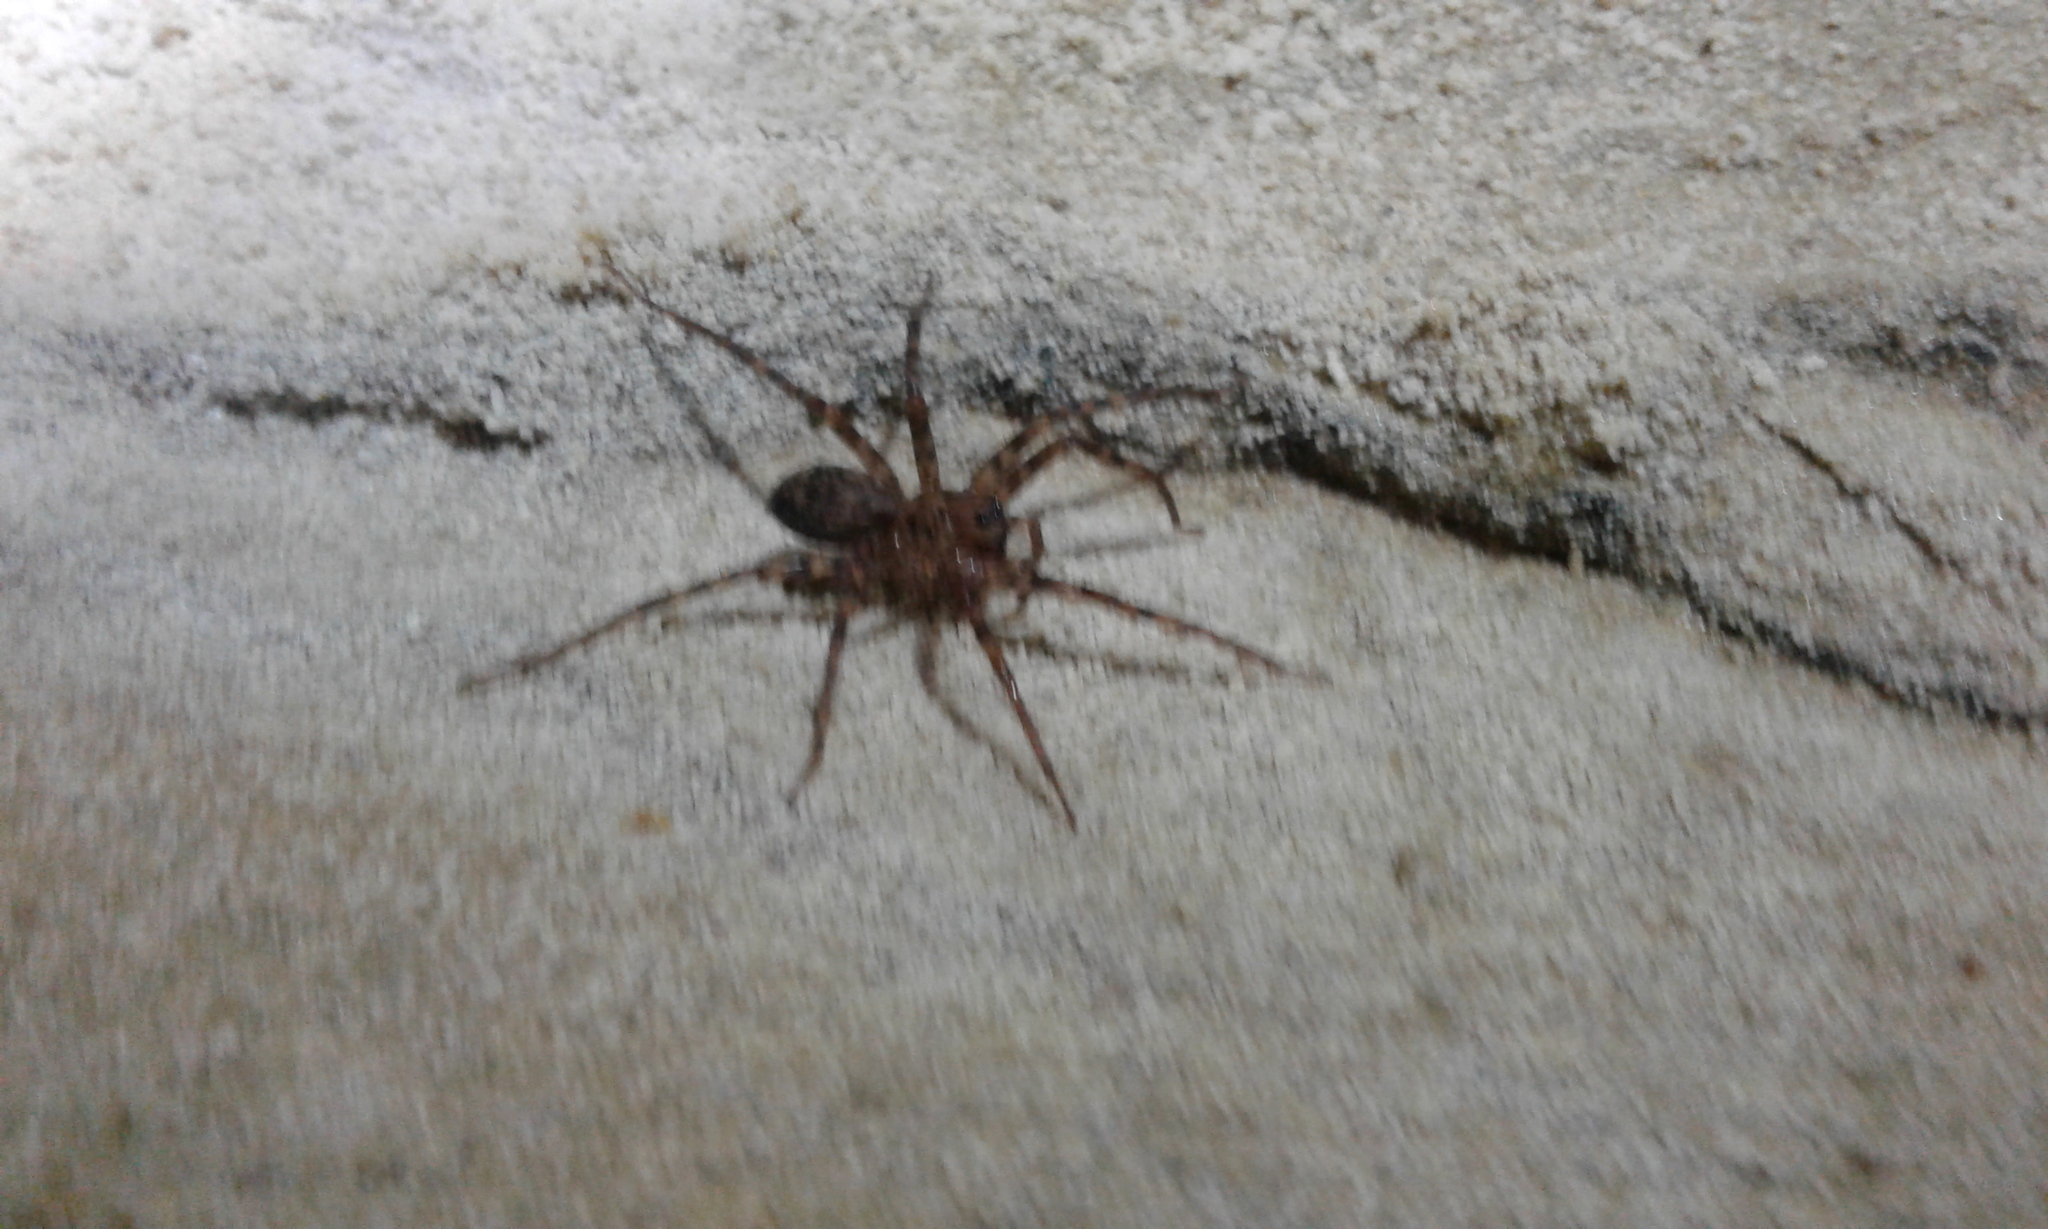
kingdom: Animalia
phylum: Arthropoda
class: Arachnida
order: Araneae
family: Cycloctenidae
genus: Cycloctenus
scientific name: Cycloctenus
